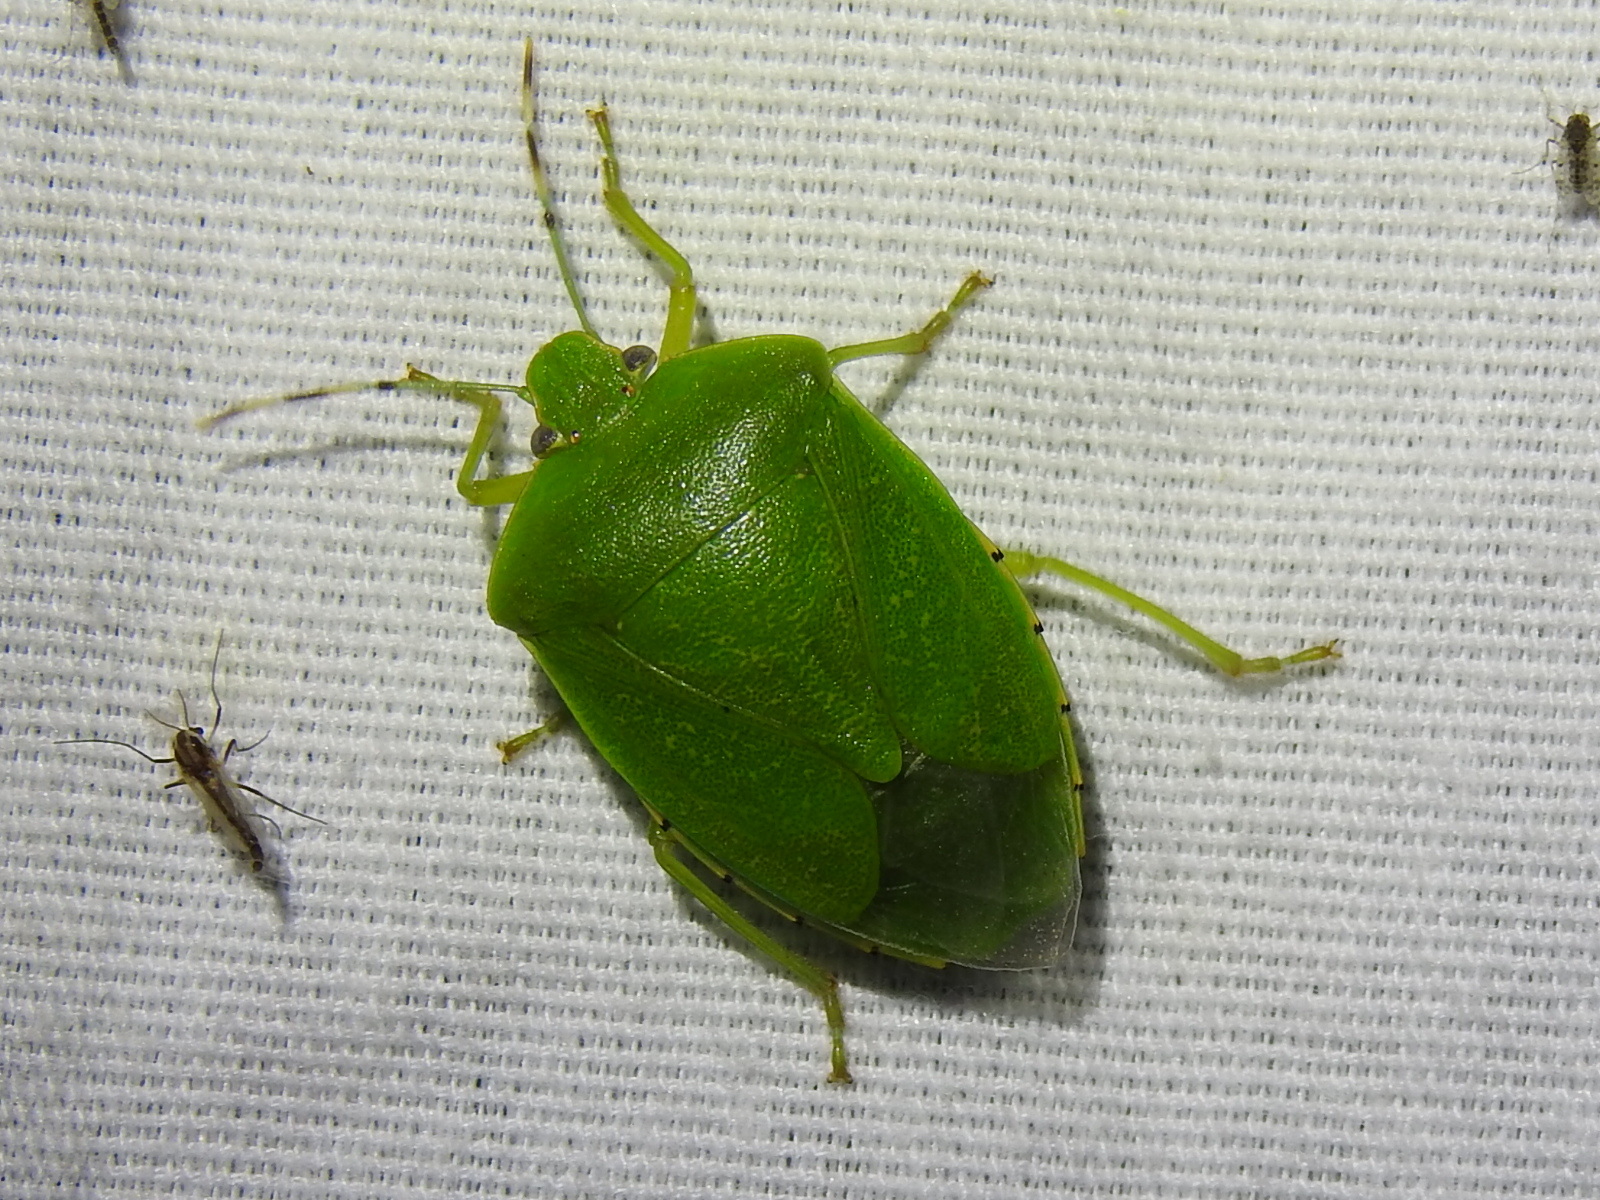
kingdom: Animalia
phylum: Arthropoda
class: Insecta
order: Hemiptera
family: Pentatomidae
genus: Chinavia
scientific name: Chinavia hilaris
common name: Green stink bug
